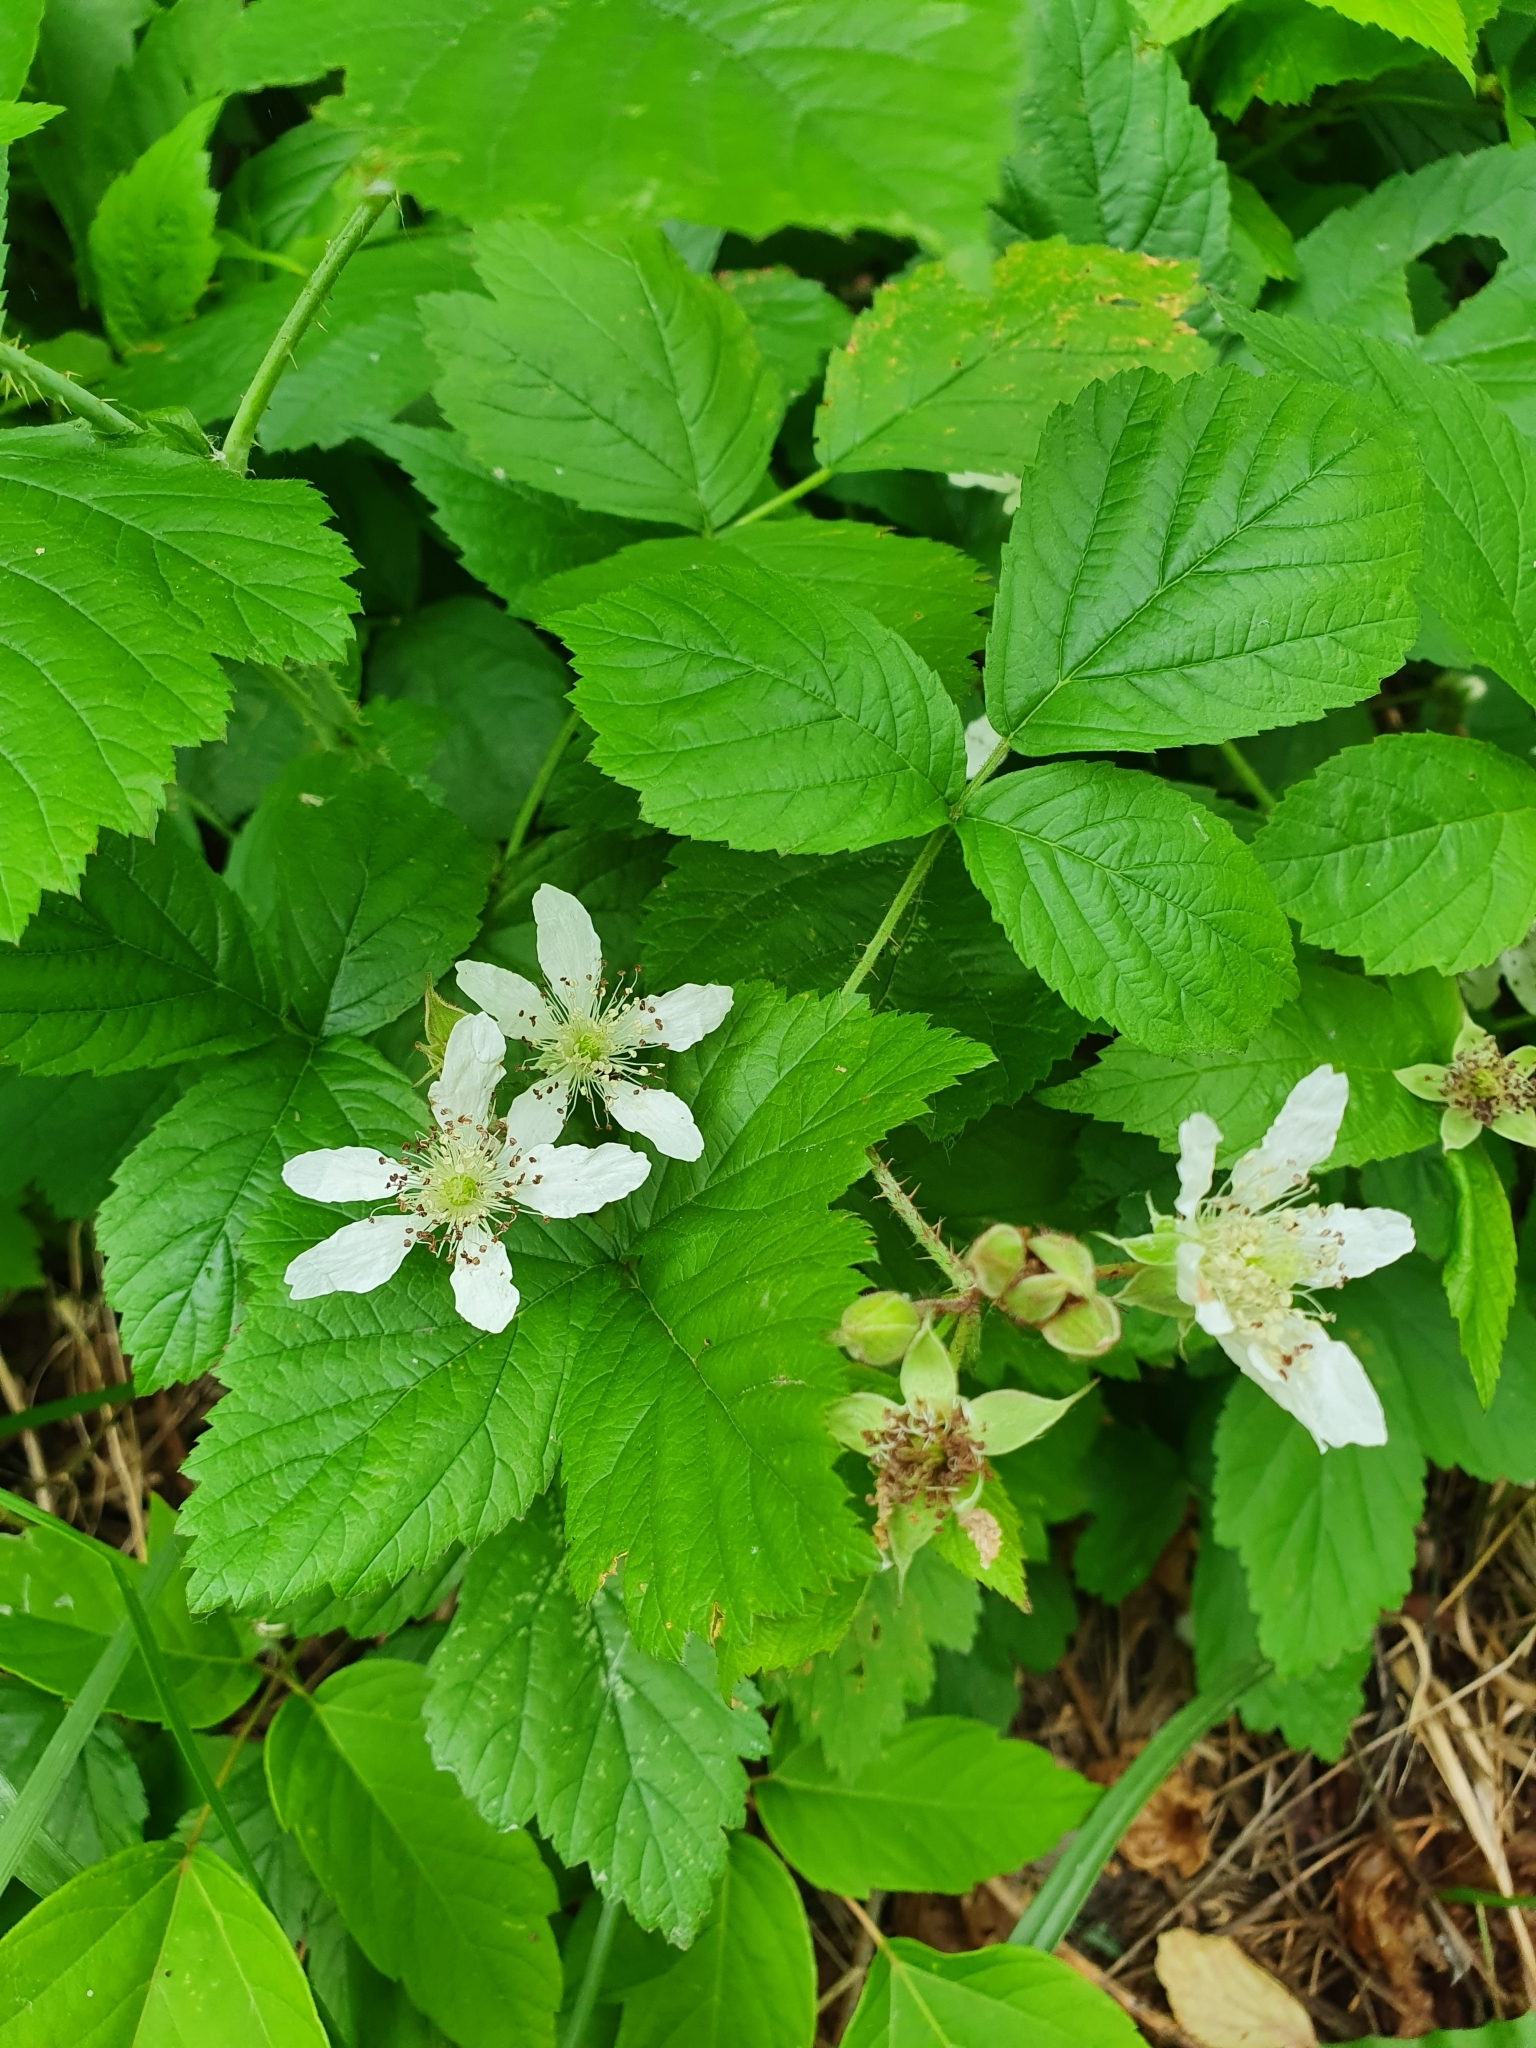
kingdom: Plantae
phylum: Tracheophyta
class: Magnoliopsida
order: Rosales
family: Rosaceae
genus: Rubus
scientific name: Rubus caesius
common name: Dewberry
